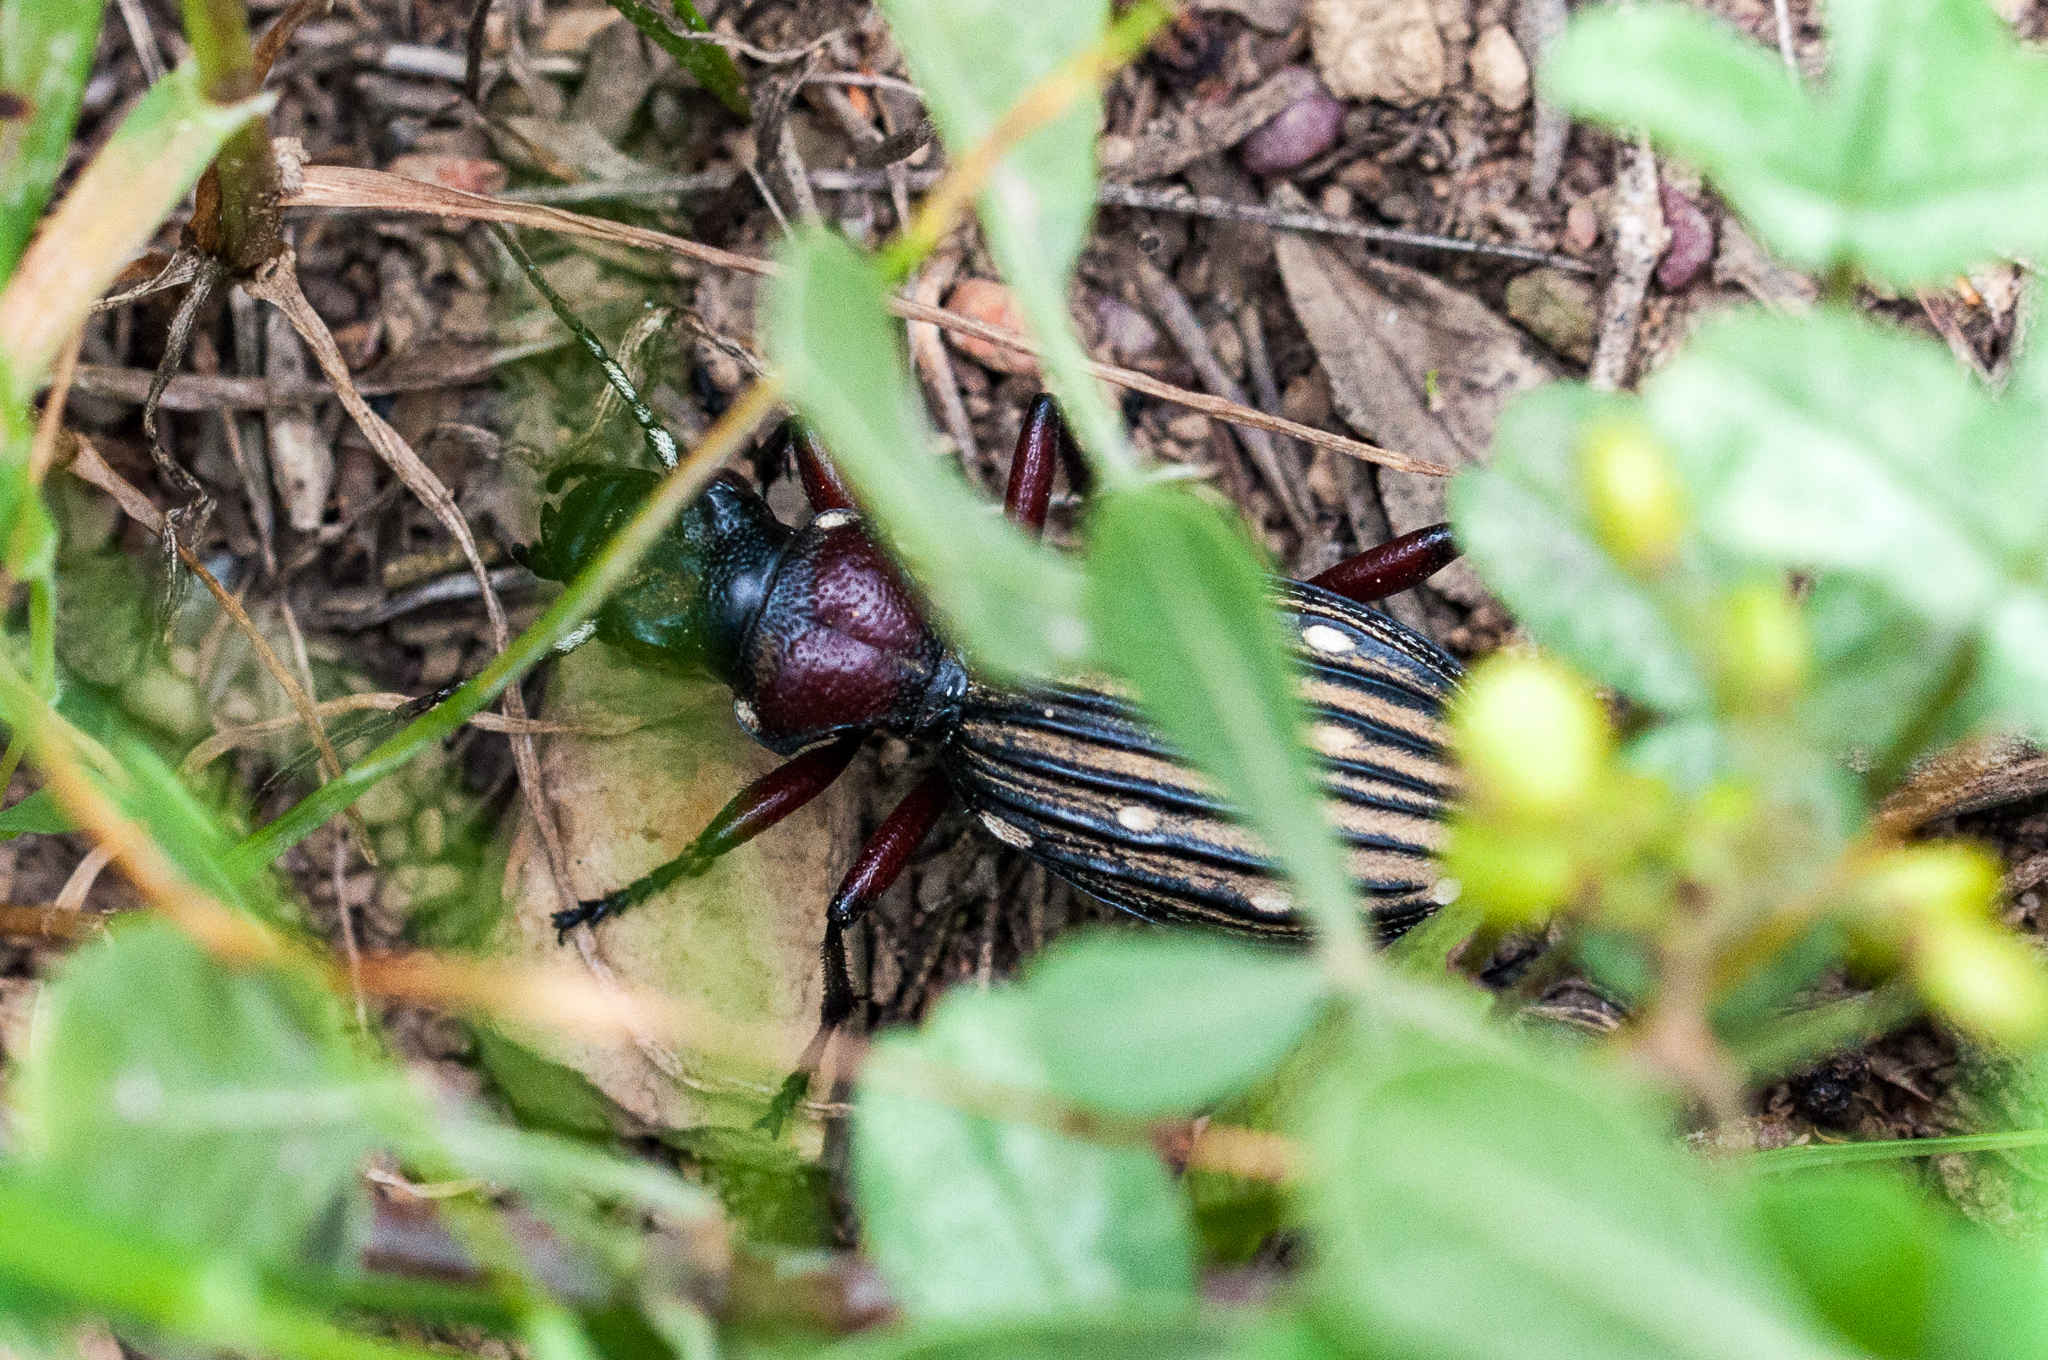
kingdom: Animalia
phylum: Arthropoda
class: Insecta
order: Coleoptera
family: Carabidae
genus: Anthia
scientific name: Anthia decemguttata
